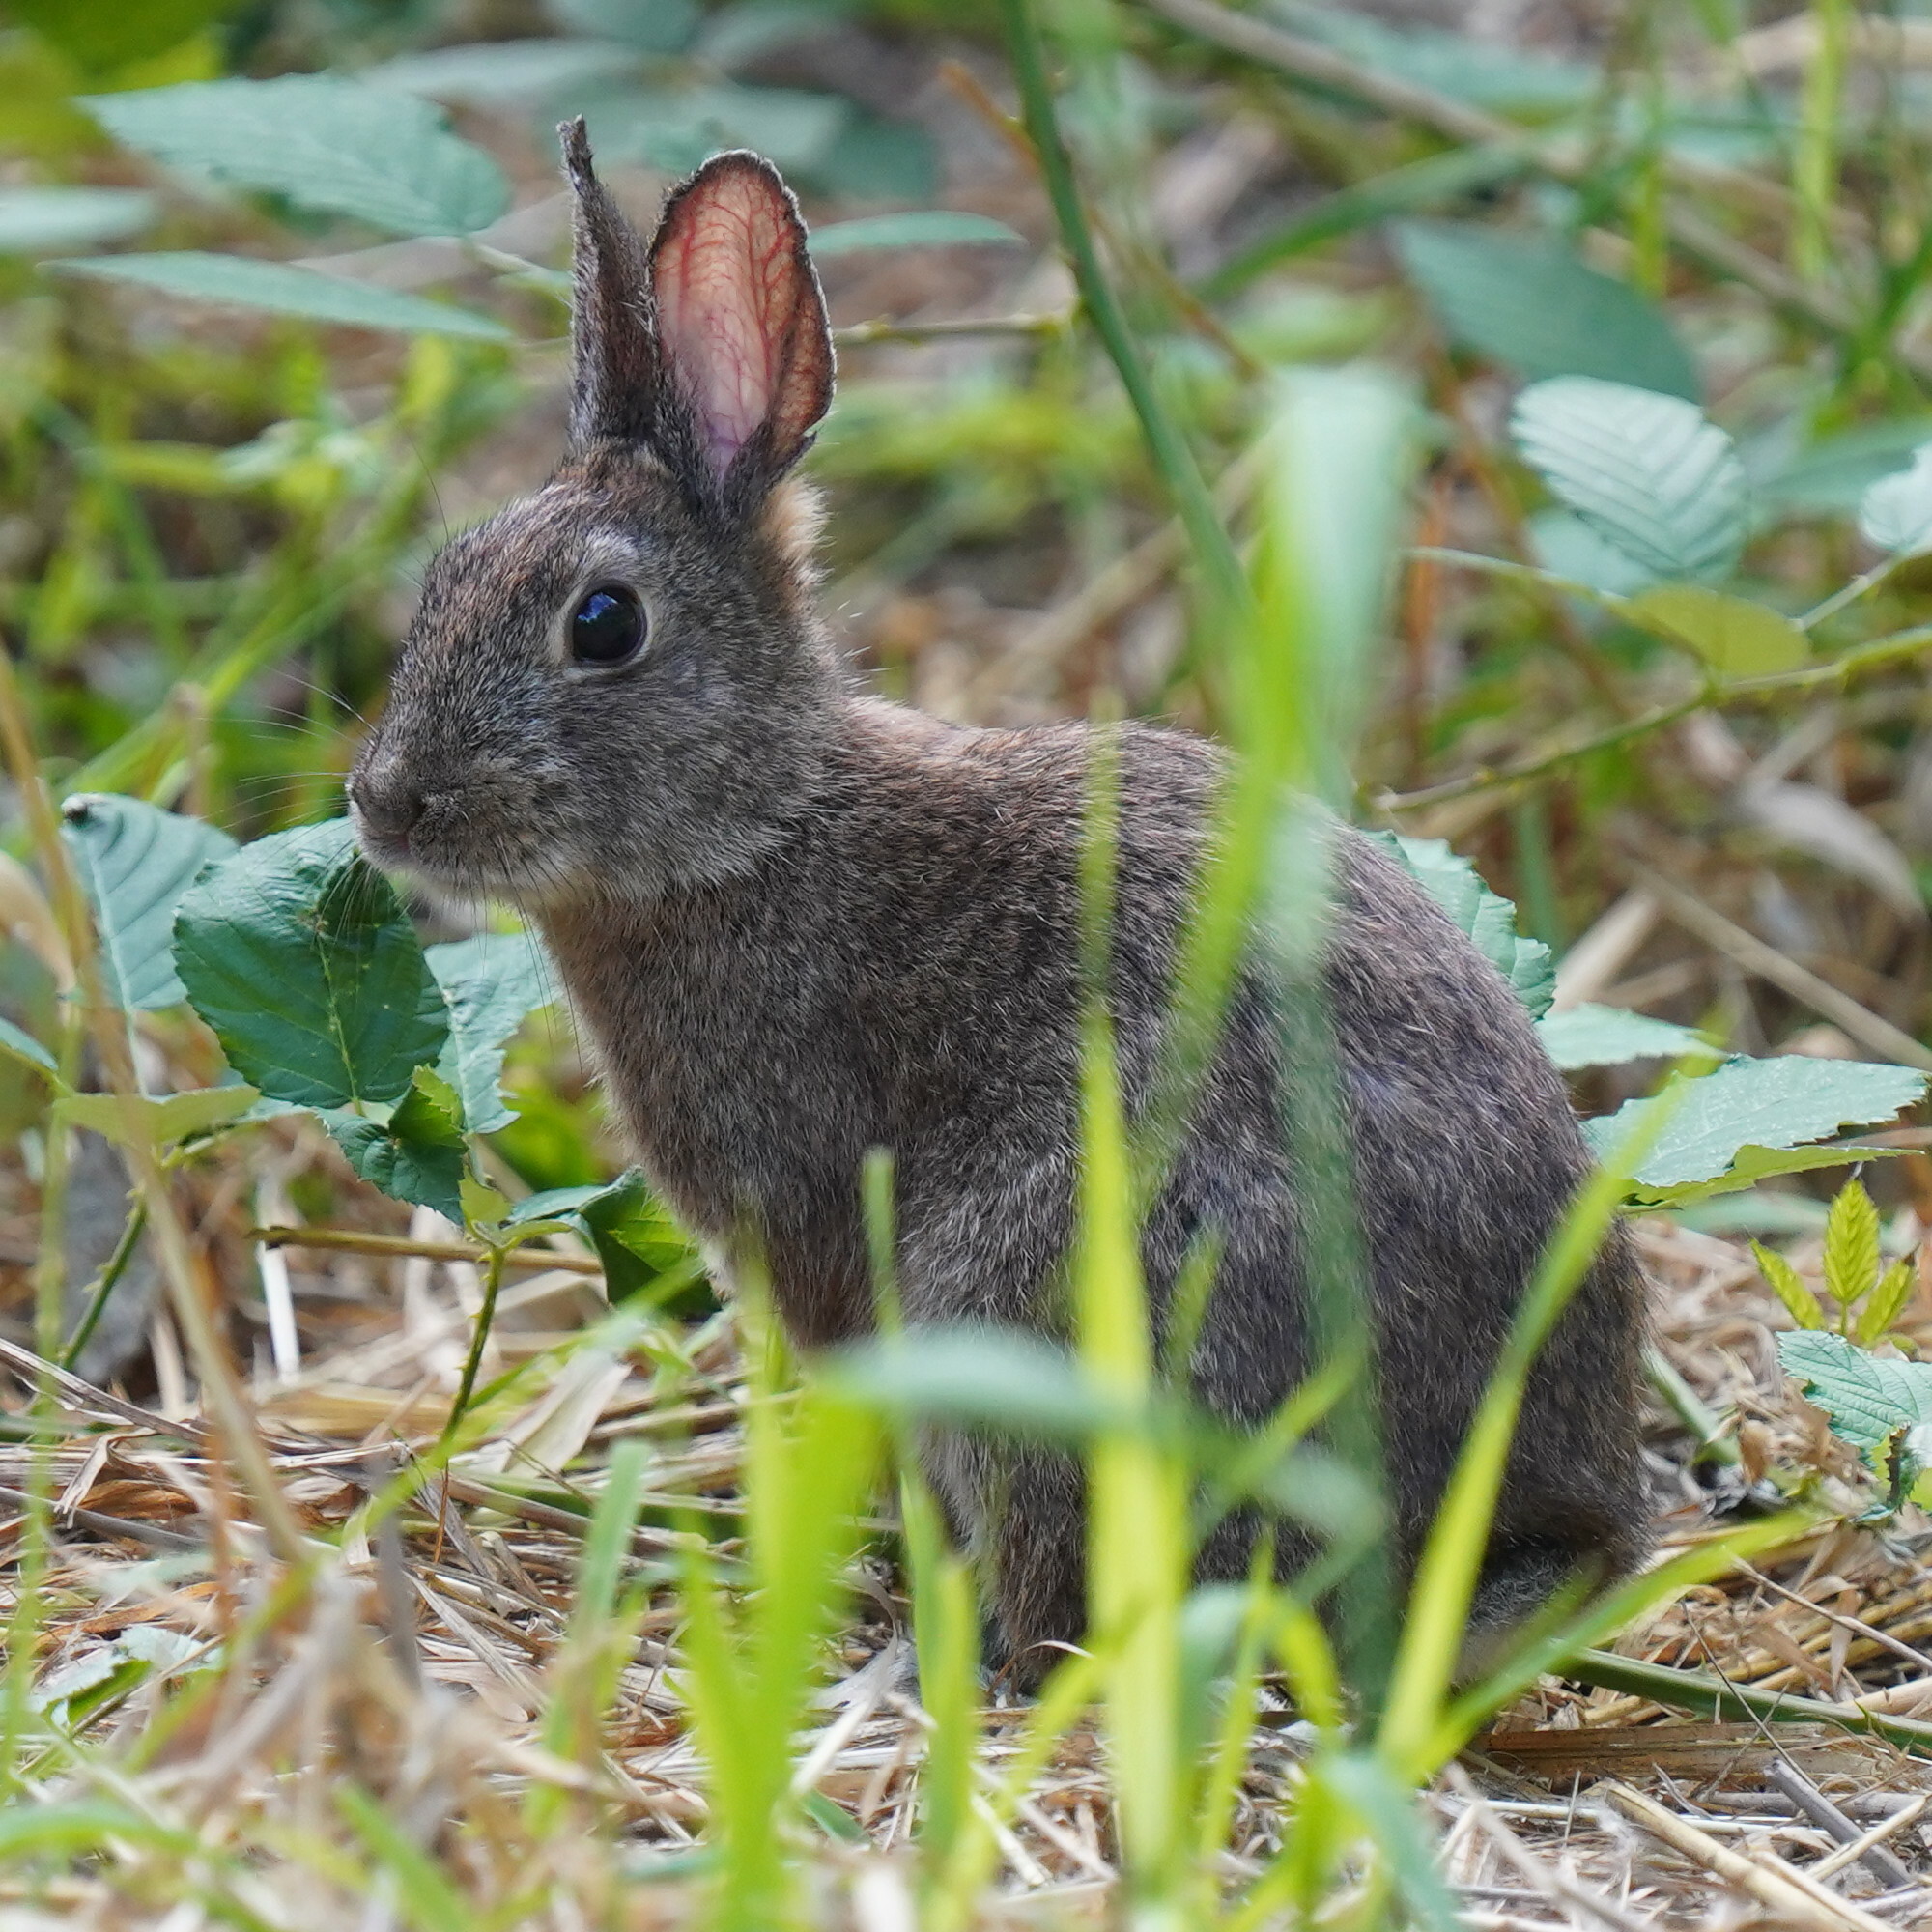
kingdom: Animalia
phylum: Chordata
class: Mammalia
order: Lagomorpha
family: Leporidae
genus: Sylvilagus
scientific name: Sylvilagus bachmani
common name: Brush rabbit
